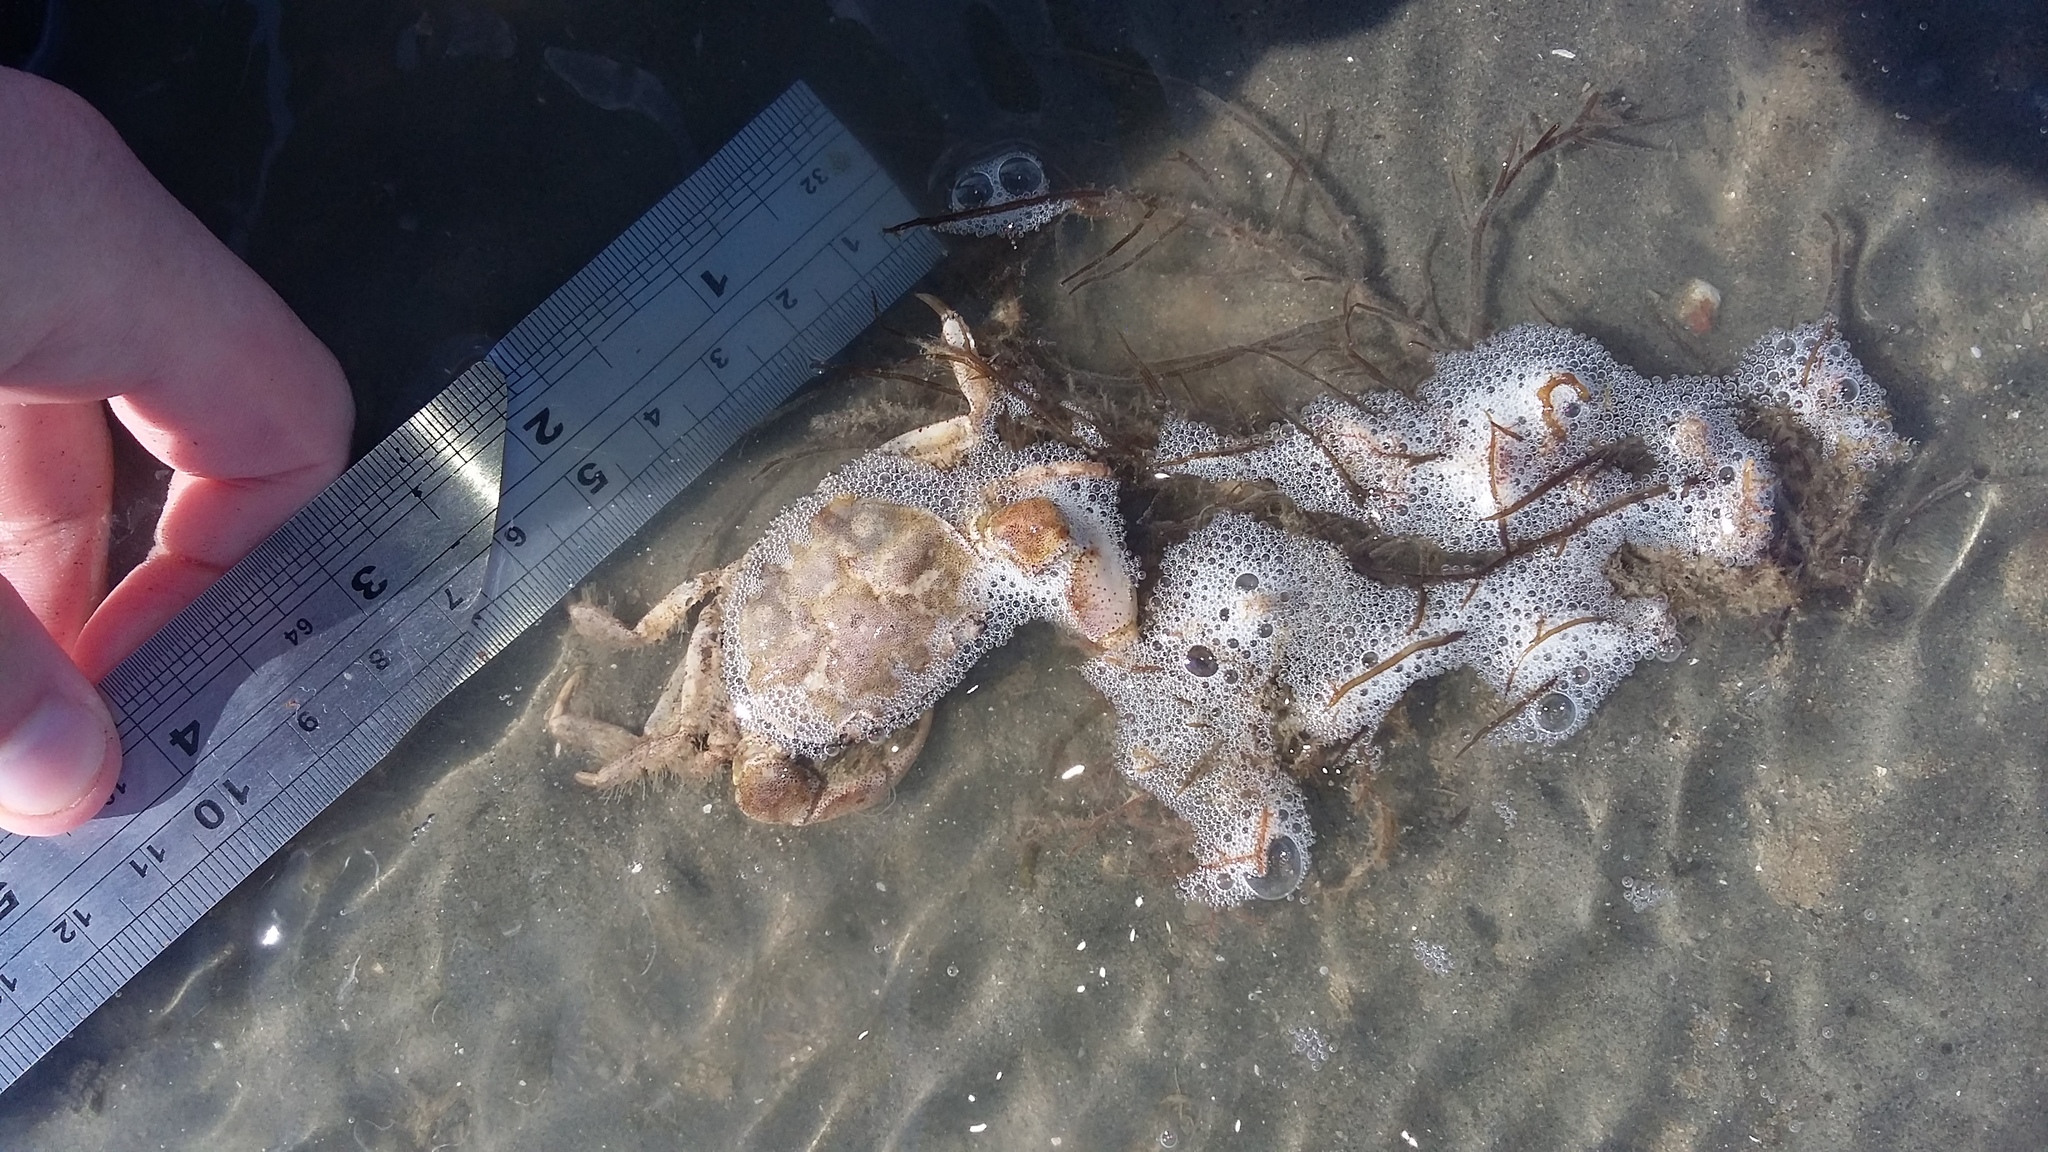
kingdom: Animalia
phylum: Arthropoda
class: Malacostraca
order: Decapoda
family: Varunidae
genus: Hemigrapsus
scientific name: Hemigrapsus crenulatus
